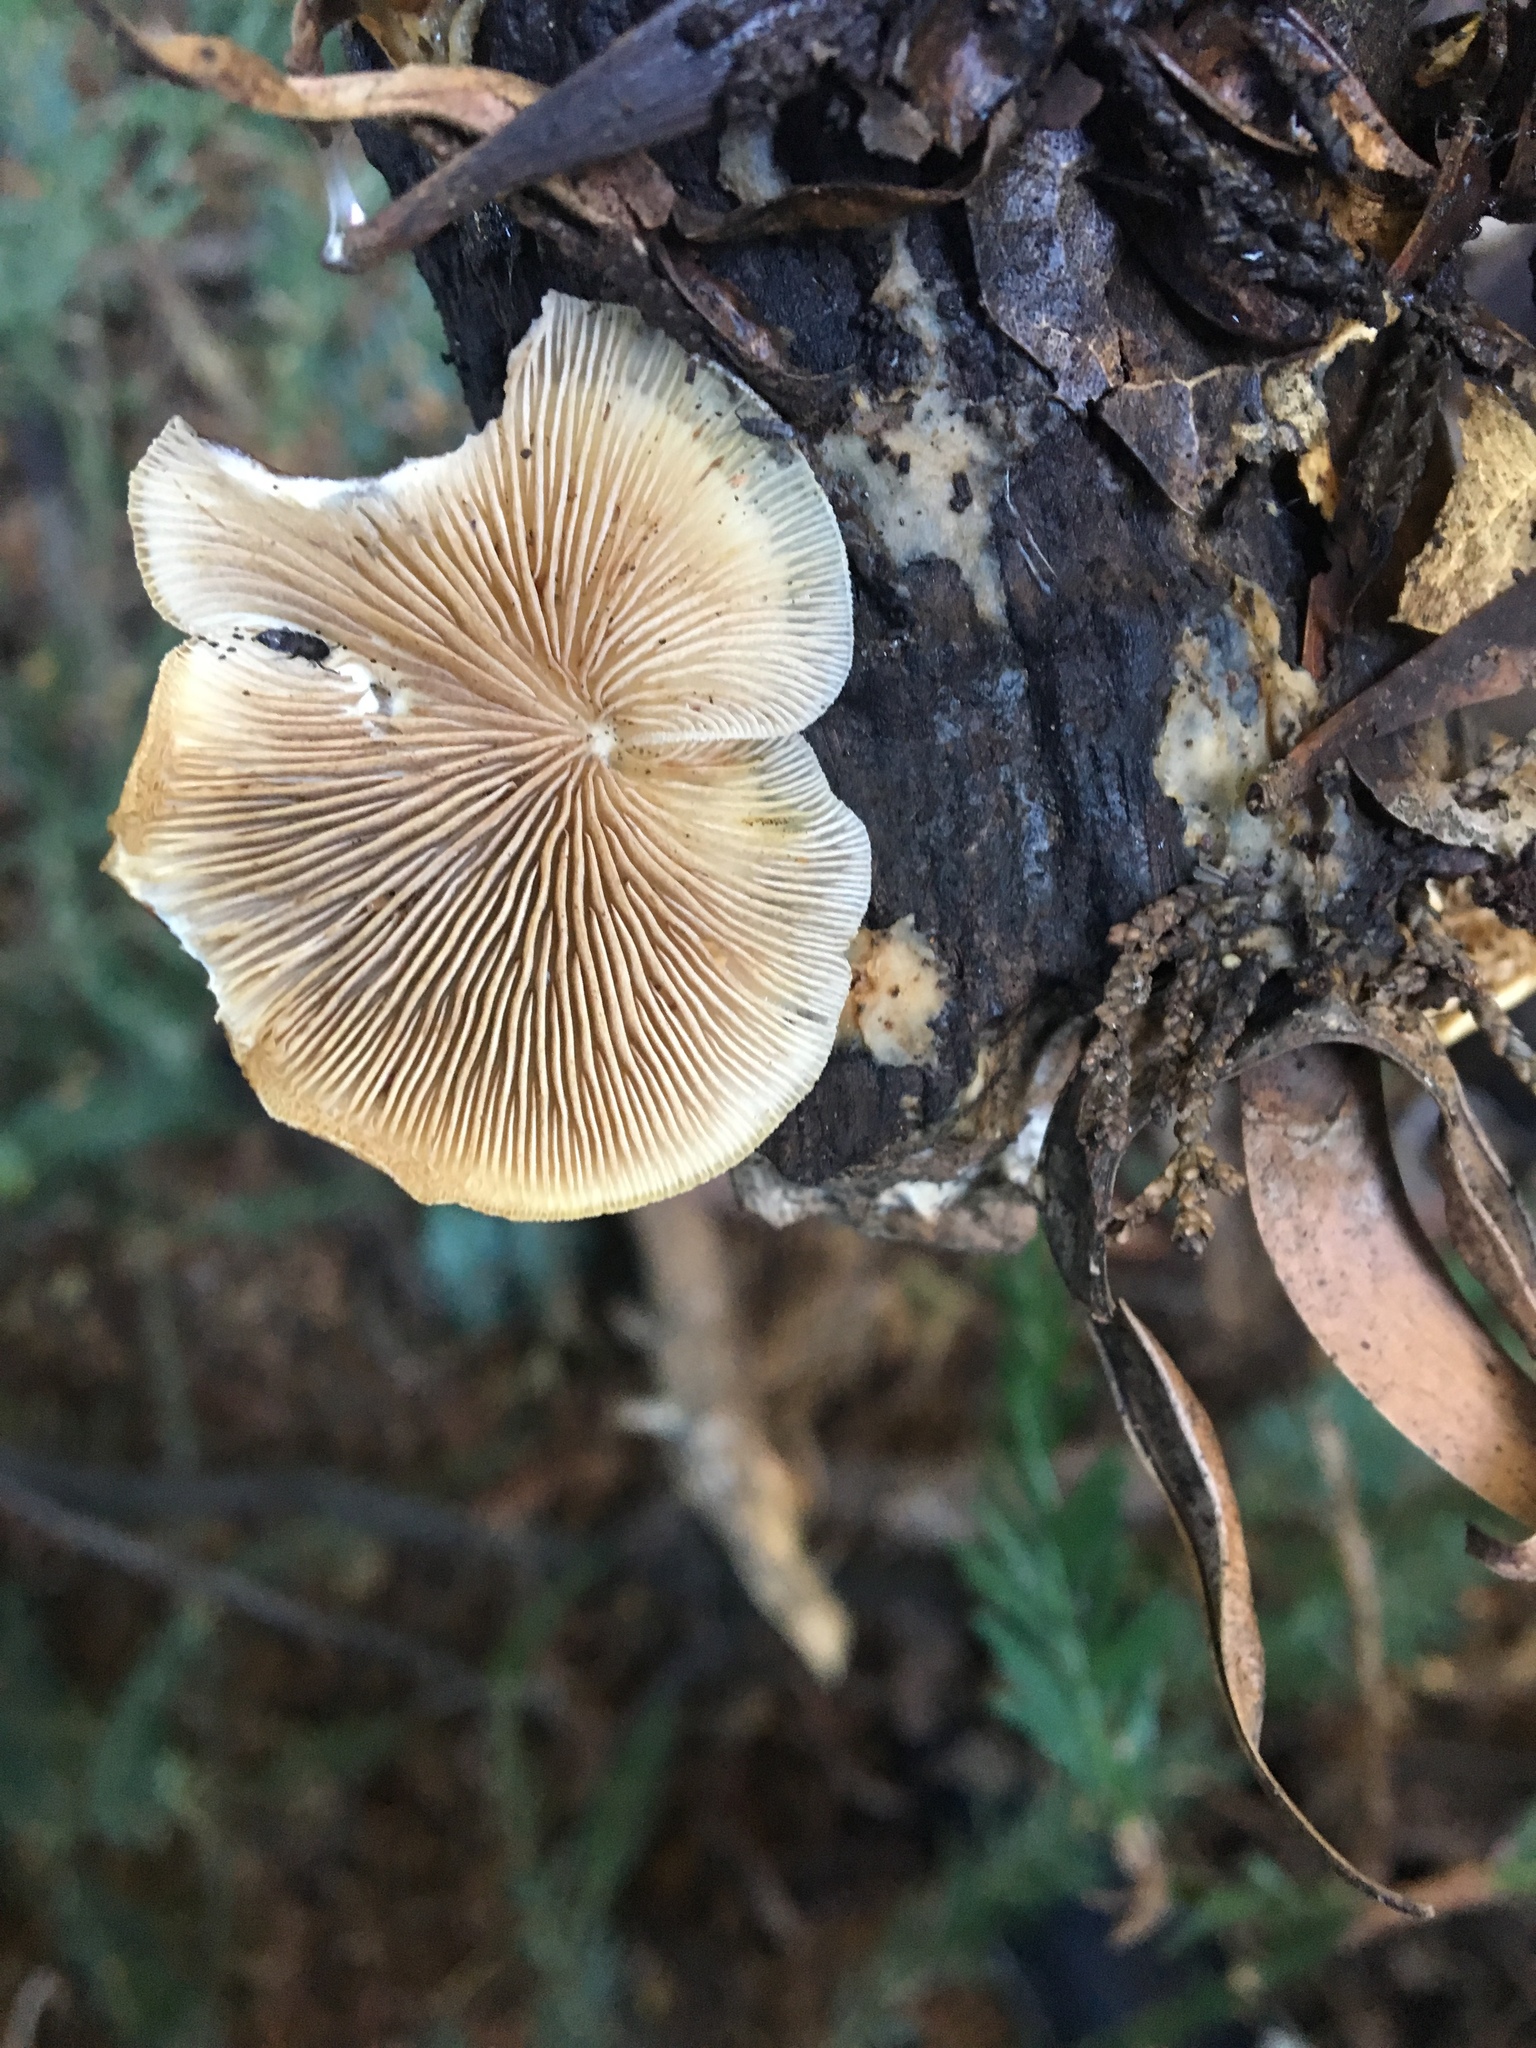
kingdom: Fungi
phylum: Basidiomycota
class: Agaricomycetes
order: Agaricales
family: Crepidotaceae
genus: Crepidotus
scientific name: Crepidotus mollis
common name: Peeling oysterling
